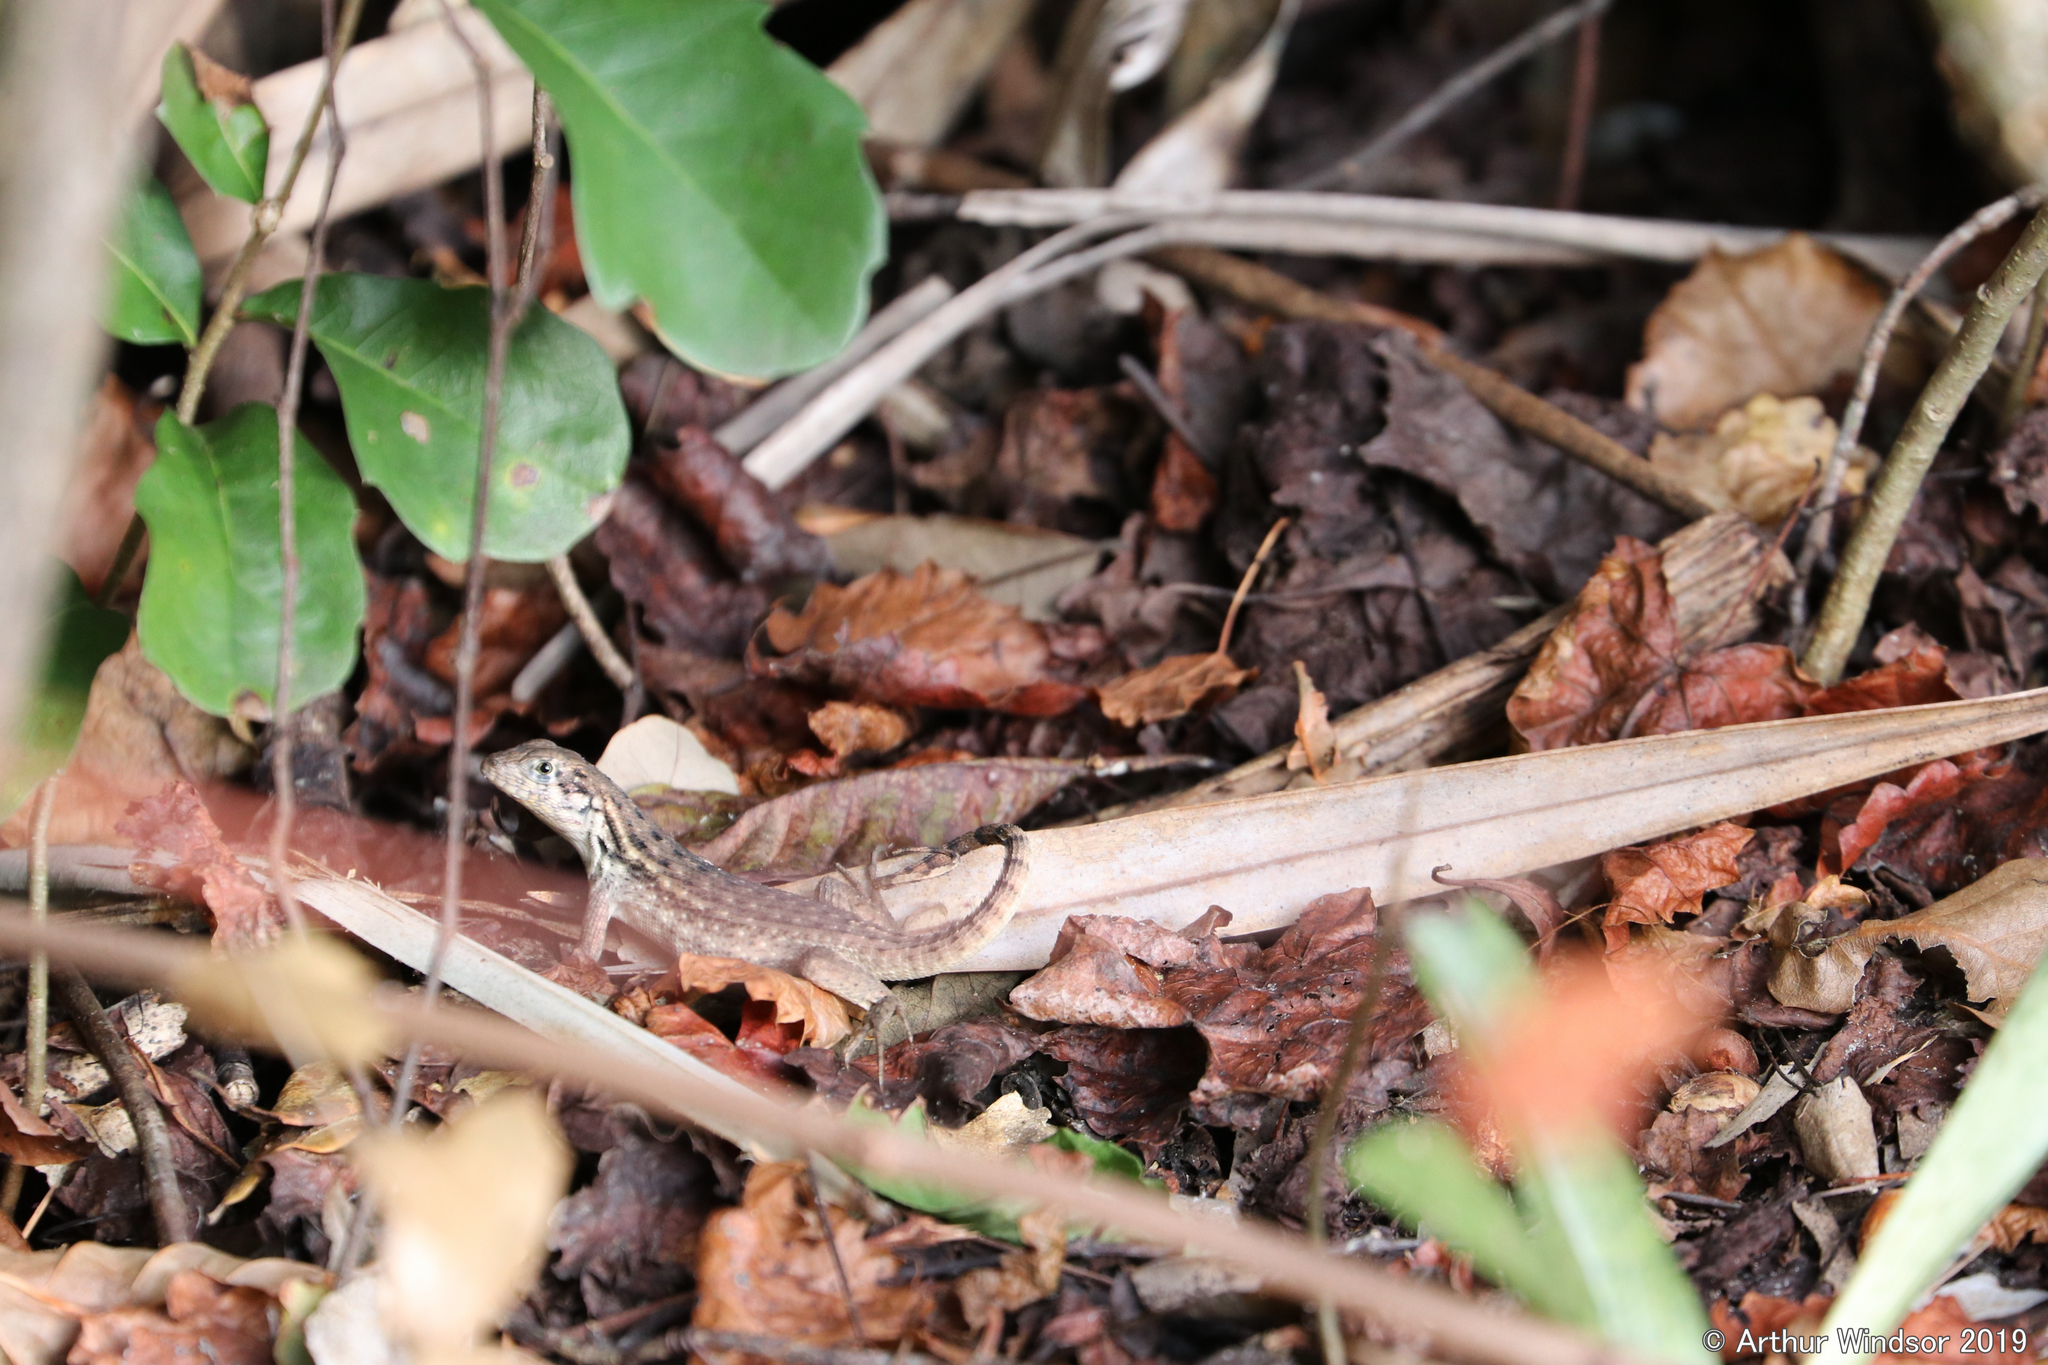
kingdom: Animalia
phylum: Chordata
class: Squamata
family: Leiocephalidae
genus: Leiocephalus
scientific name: Leiocephalus carinatus
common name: Northern curly-tailed lizard
